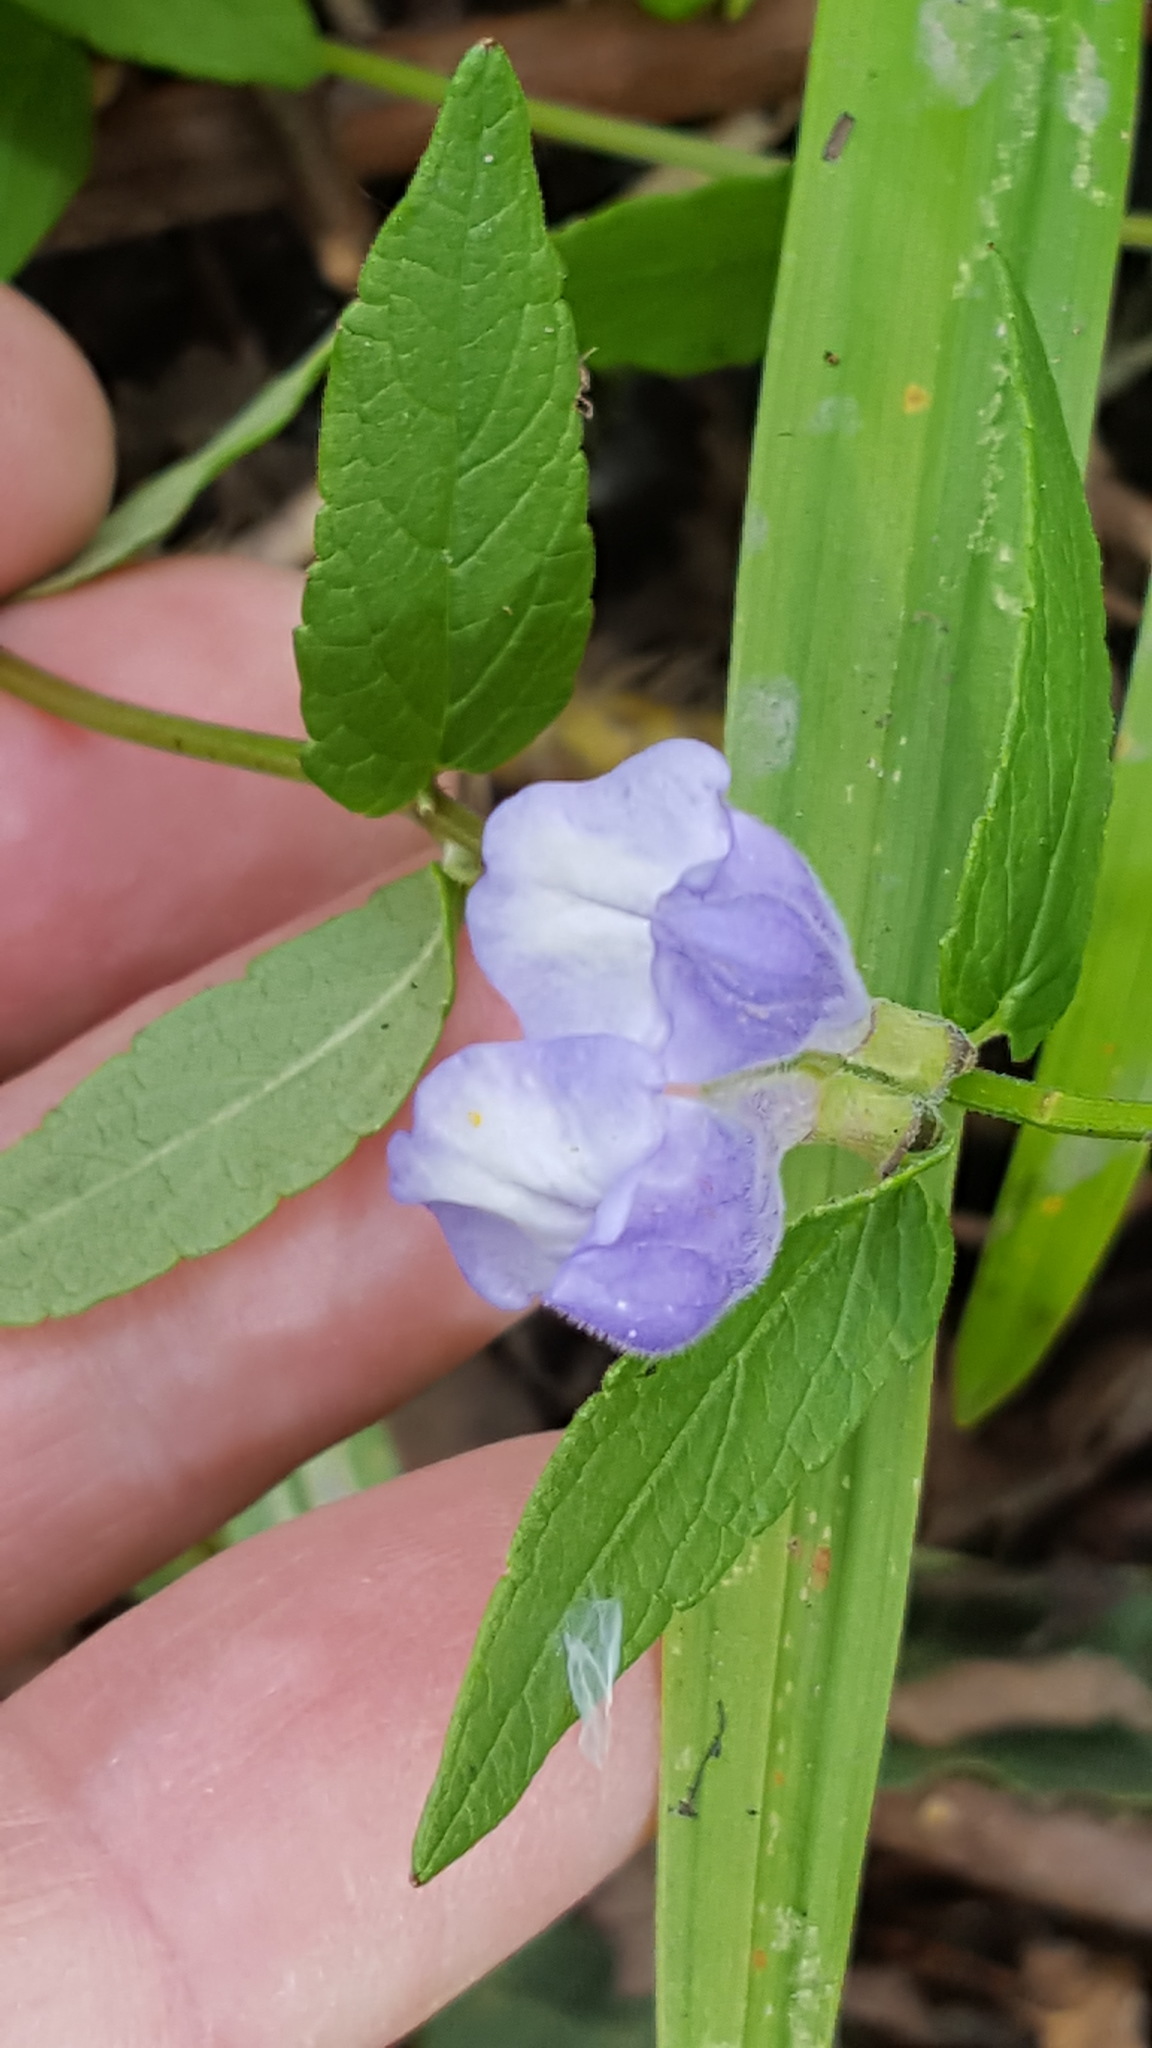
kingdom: Plantae
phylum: Tracheophyta
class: Magnoliopsida
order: Lamiales
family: Lamiaceae
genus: Scutellaria
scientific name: Scutellaria galericulata
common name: Skullcap
